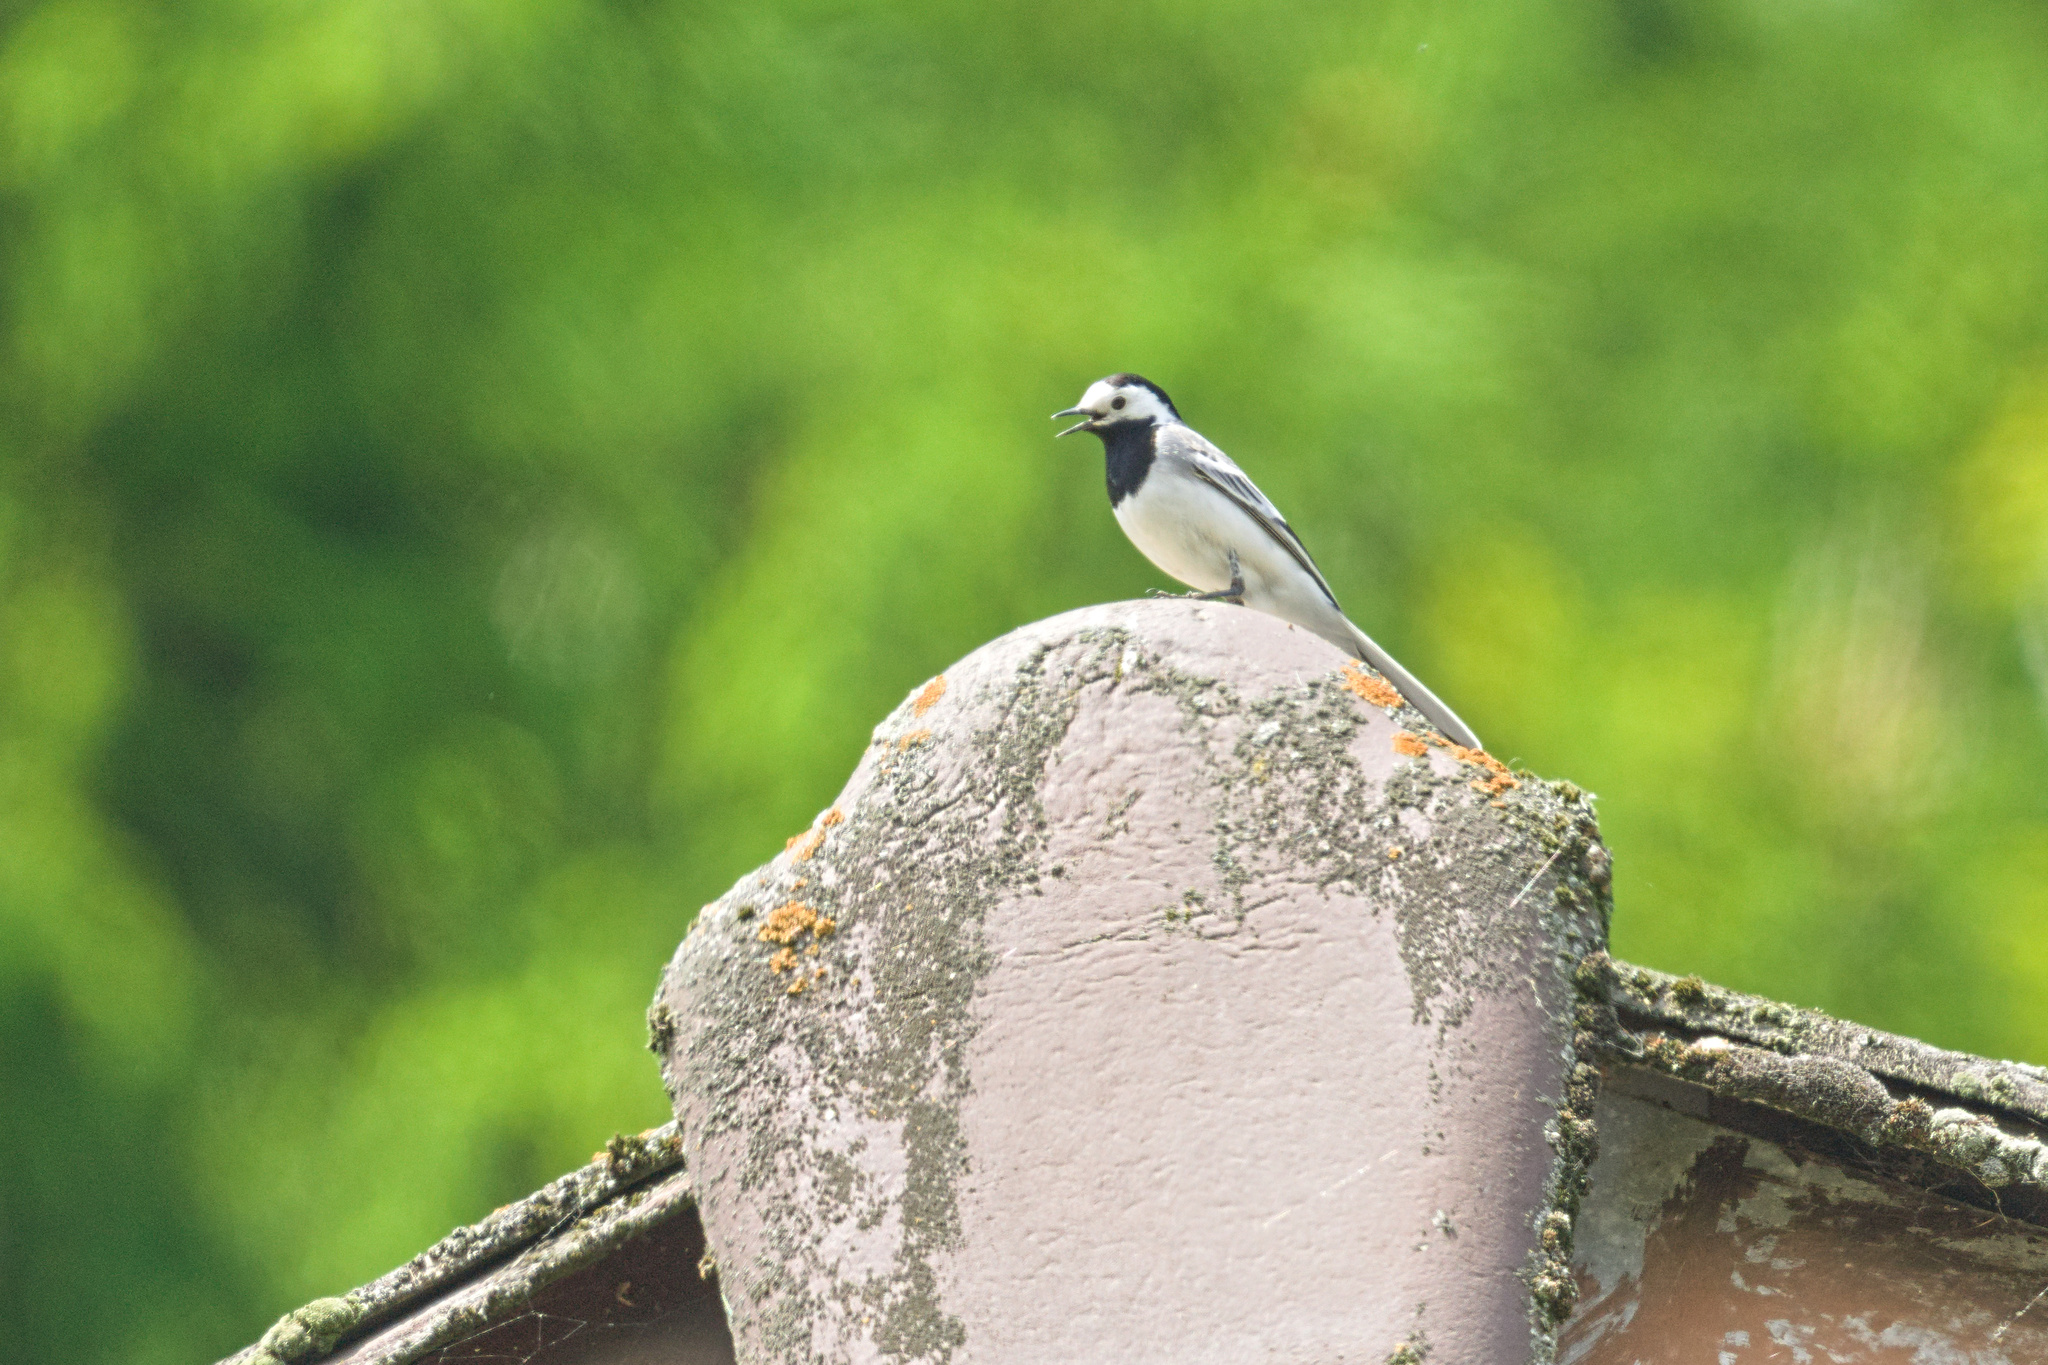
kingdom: Animalia
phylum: Chordata
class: Aves
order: Passeriformes
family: Motacillidae
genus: Motacilla
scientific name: Motacilla alba
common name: White wagtail
